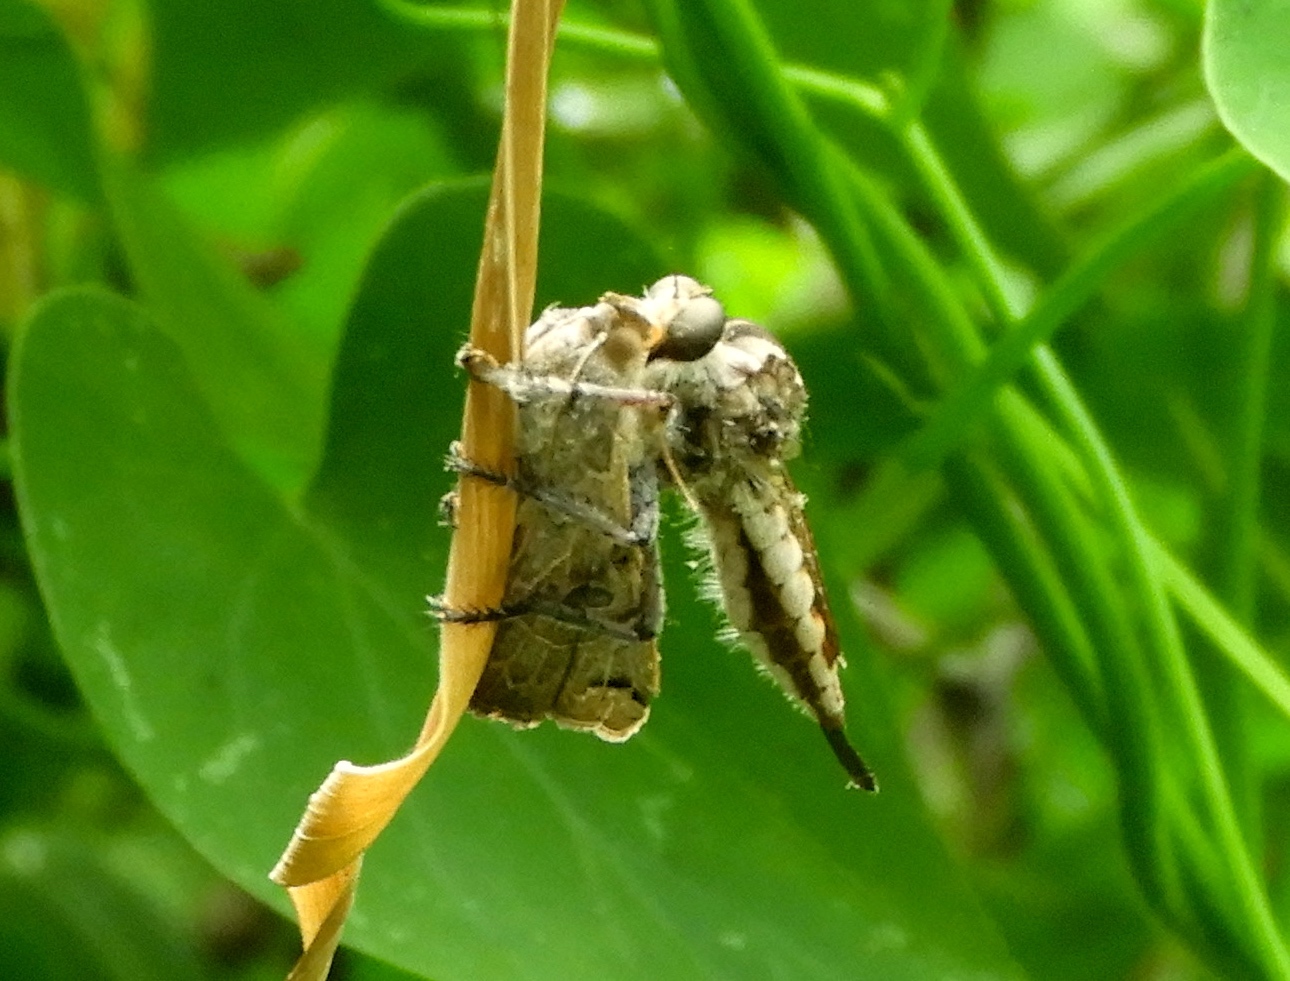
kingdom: Animalia
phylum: Arthropoda
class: Insecta
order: Diptera
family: Asilidae
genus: Efferia
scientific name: Efferia
